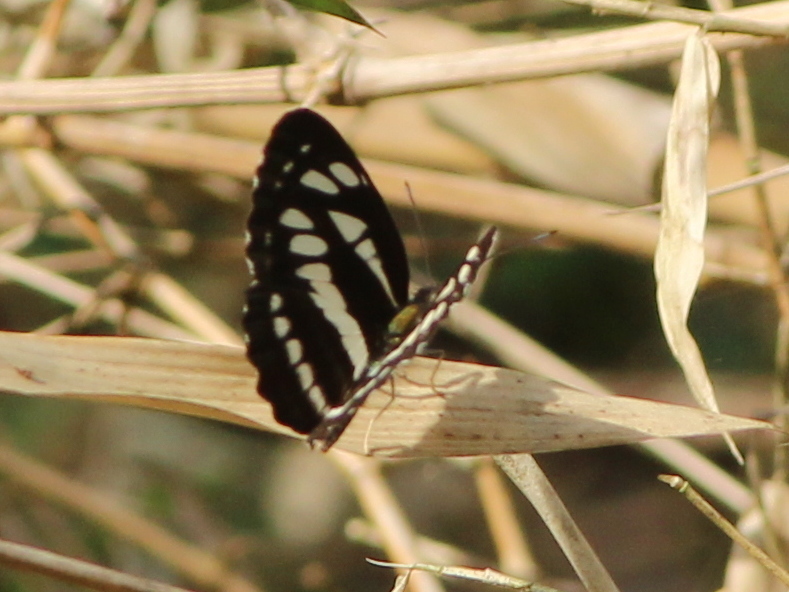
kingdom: Animalia
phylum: Arthropoda
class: Insecta
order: Lepidoptera
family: Nymphalidae
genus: Neptis
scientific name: Neptis hylas
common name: Common sailer
